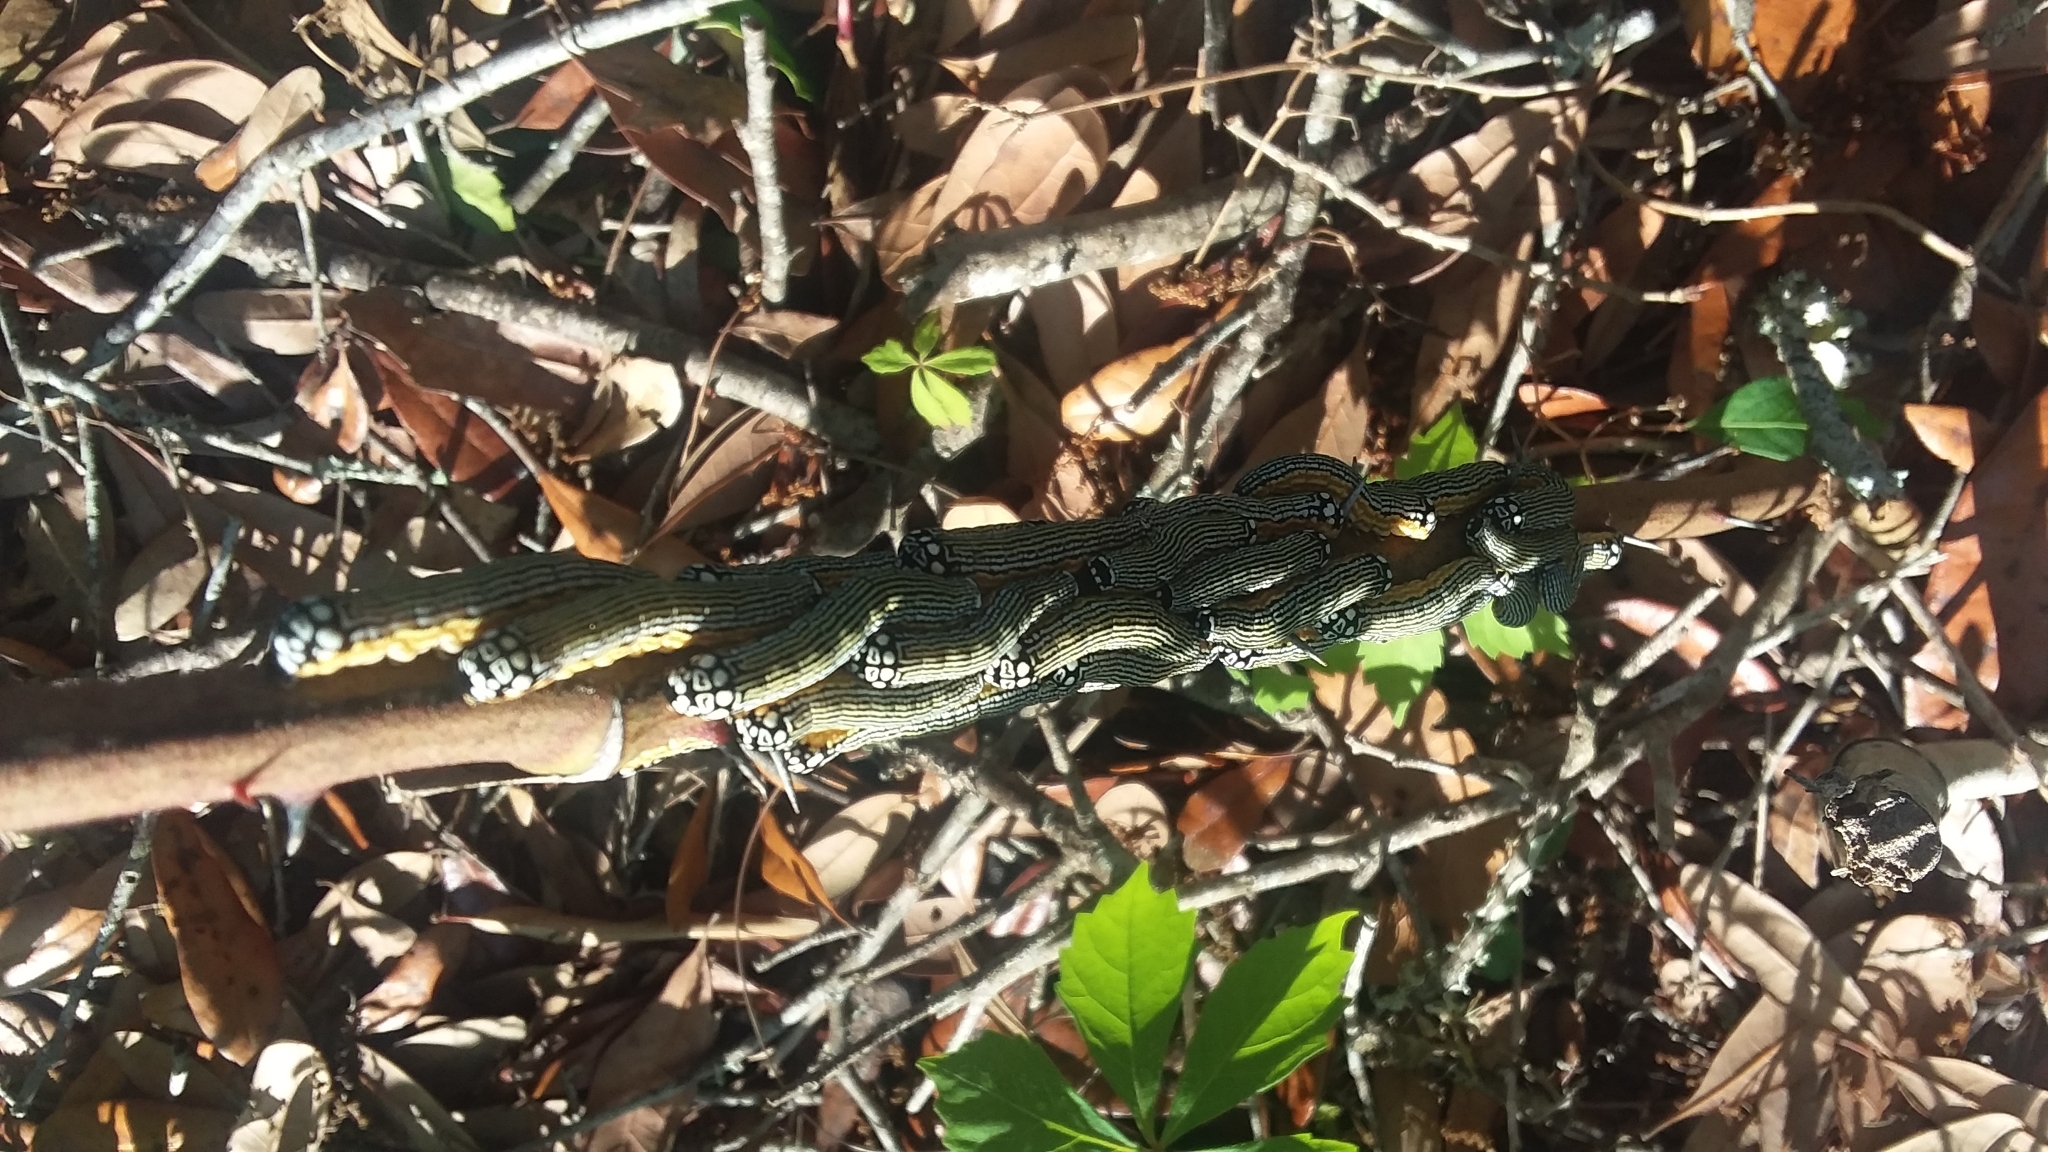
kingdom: Animalia
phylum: Arthropoda
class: Insecta
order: Lepidoptera
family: Noctuidae
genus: Phosphila
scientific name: Phosphila turbulenta
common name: Turbulent phosphila moth
